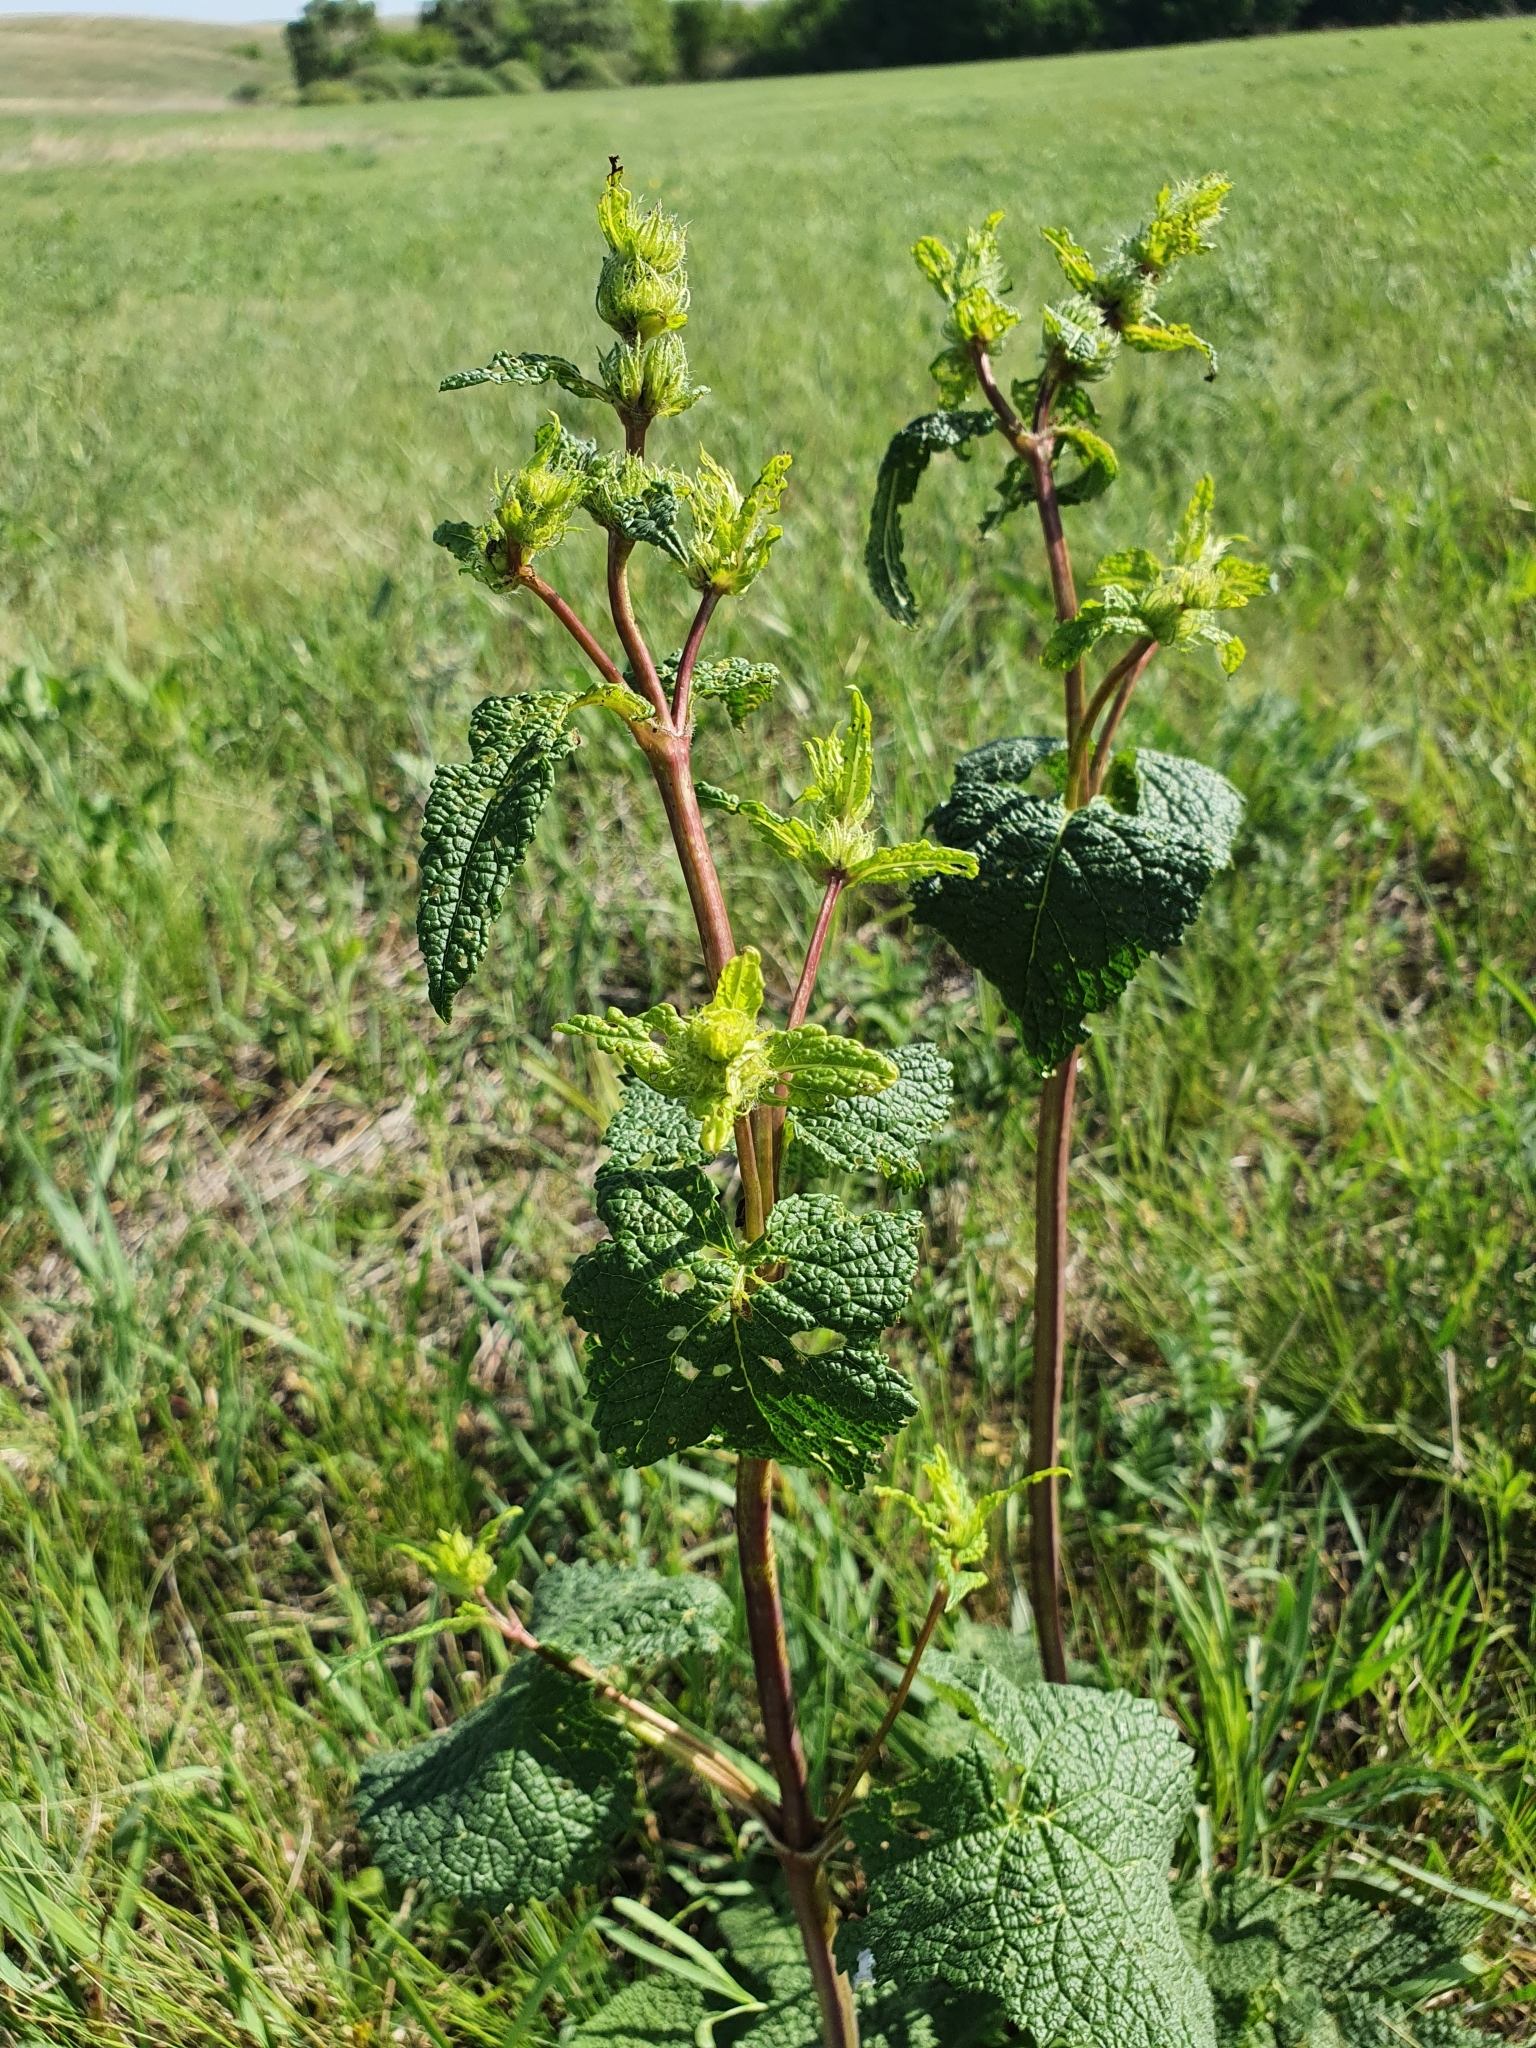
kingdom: Plantae
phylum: Tracheophyta
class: Magnoliopsida
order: Lamiales
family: Lamiaceae
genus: Phlomoides
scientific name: Phlomoides tuberosa
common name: Tuberous jerusalem sage
